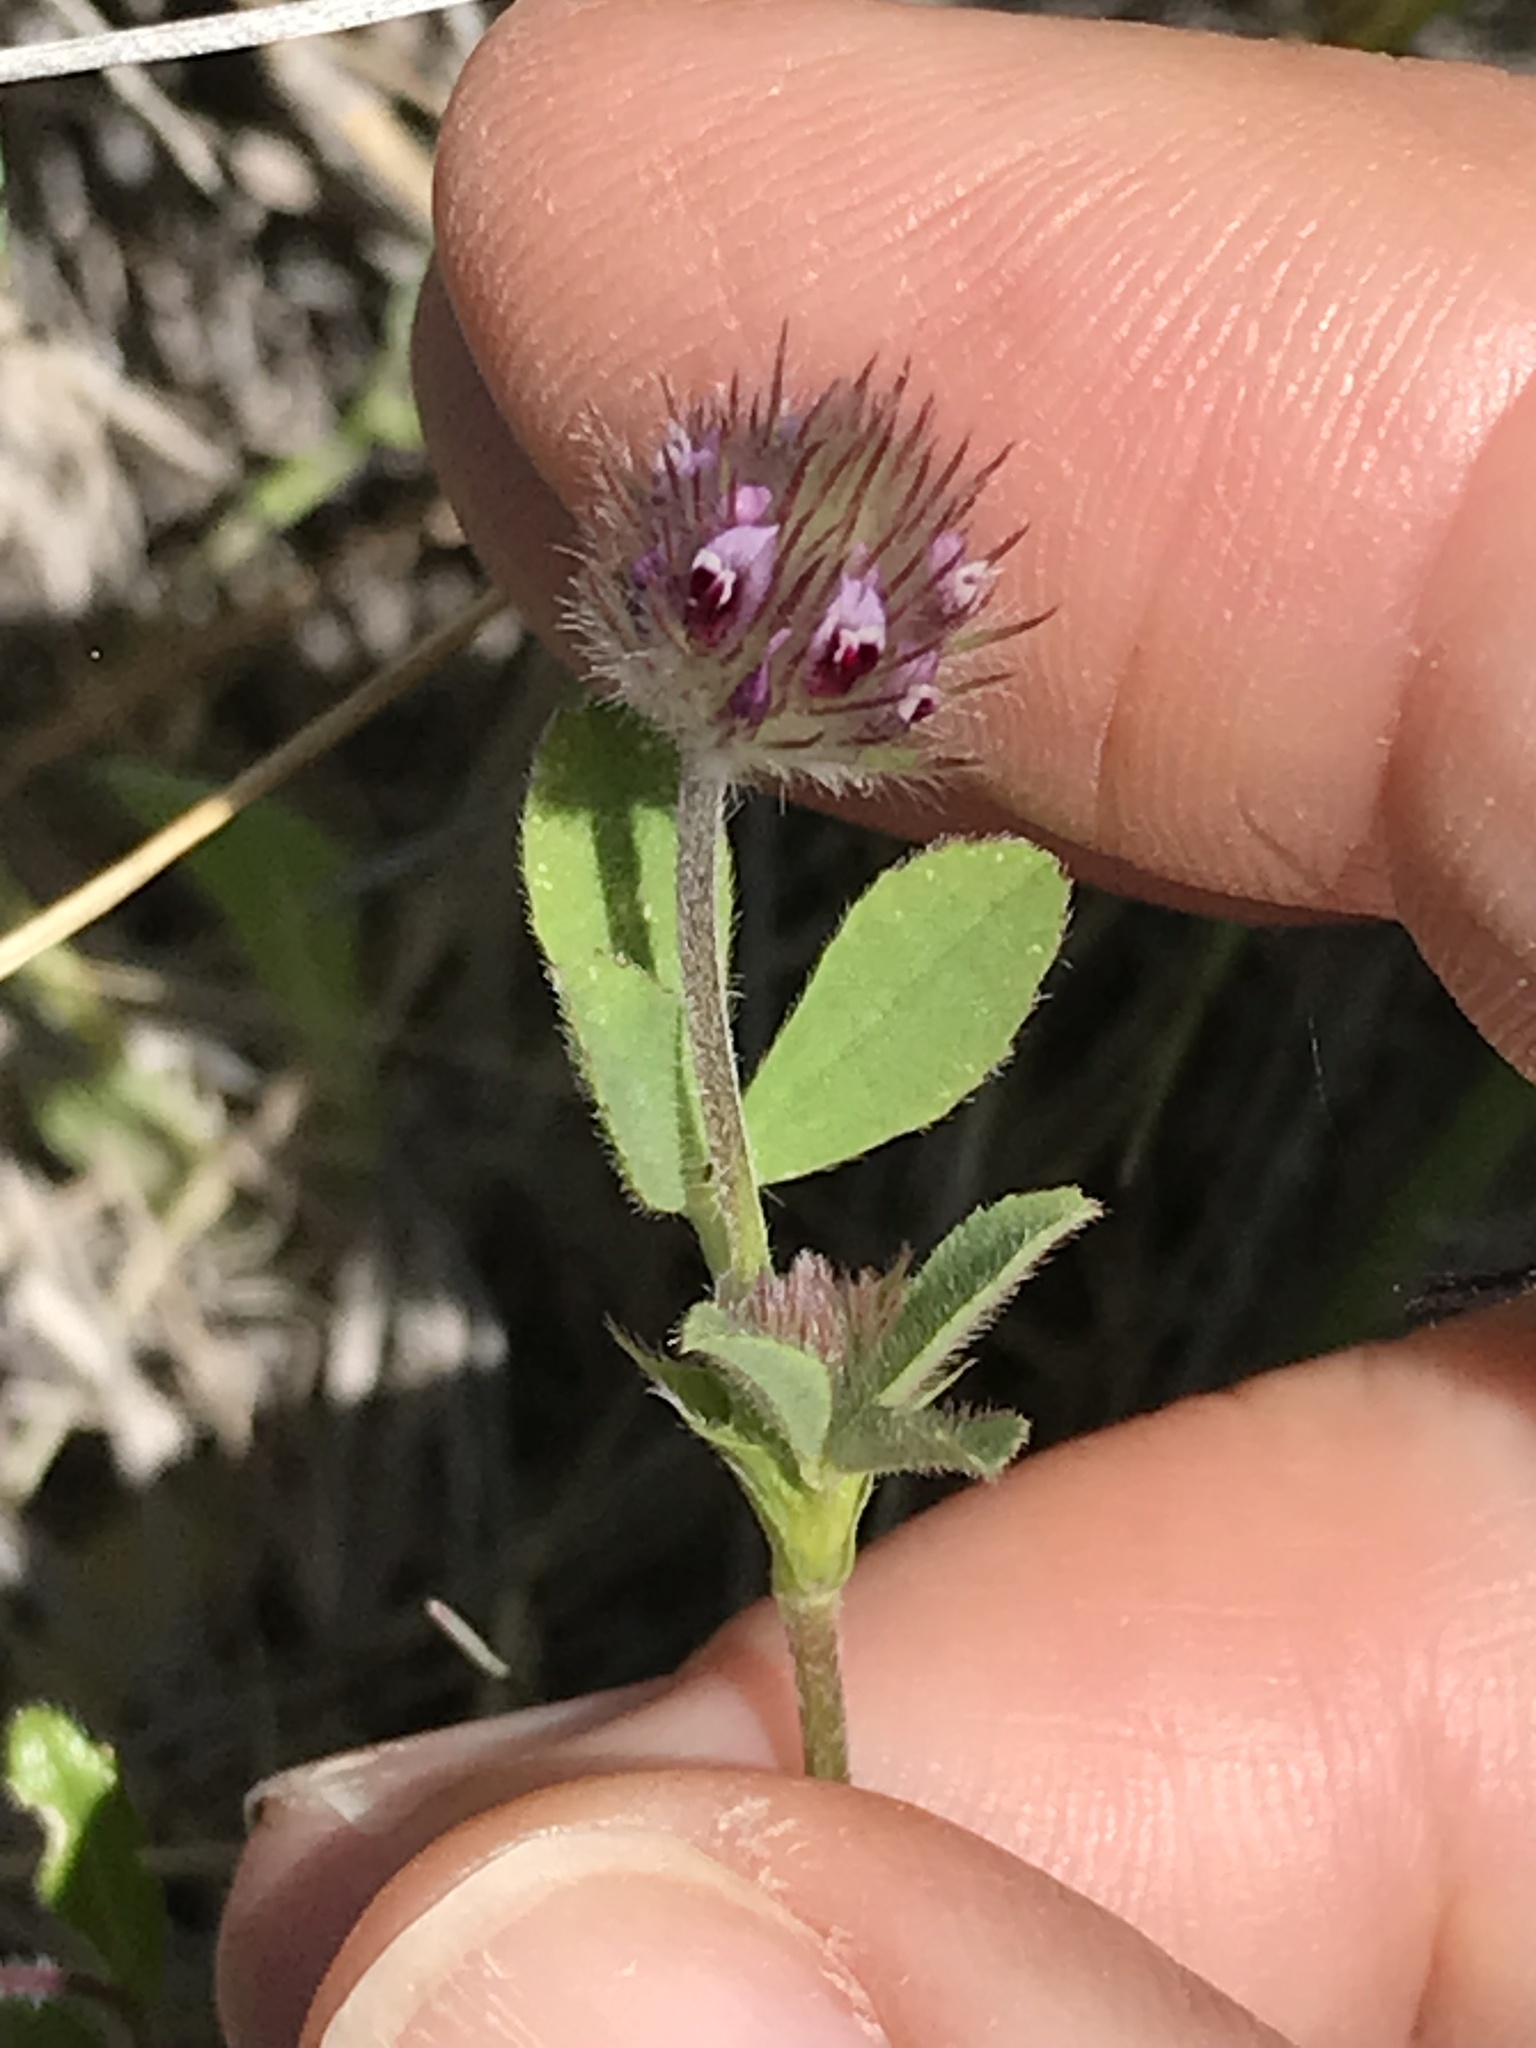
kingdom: Plantae
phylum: Tracheophyta
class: Magnoliopsida
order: Fabales
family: Fabaceae
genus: Trifolium
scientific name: Trifolium albopurpureum
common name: Rancheria clover
